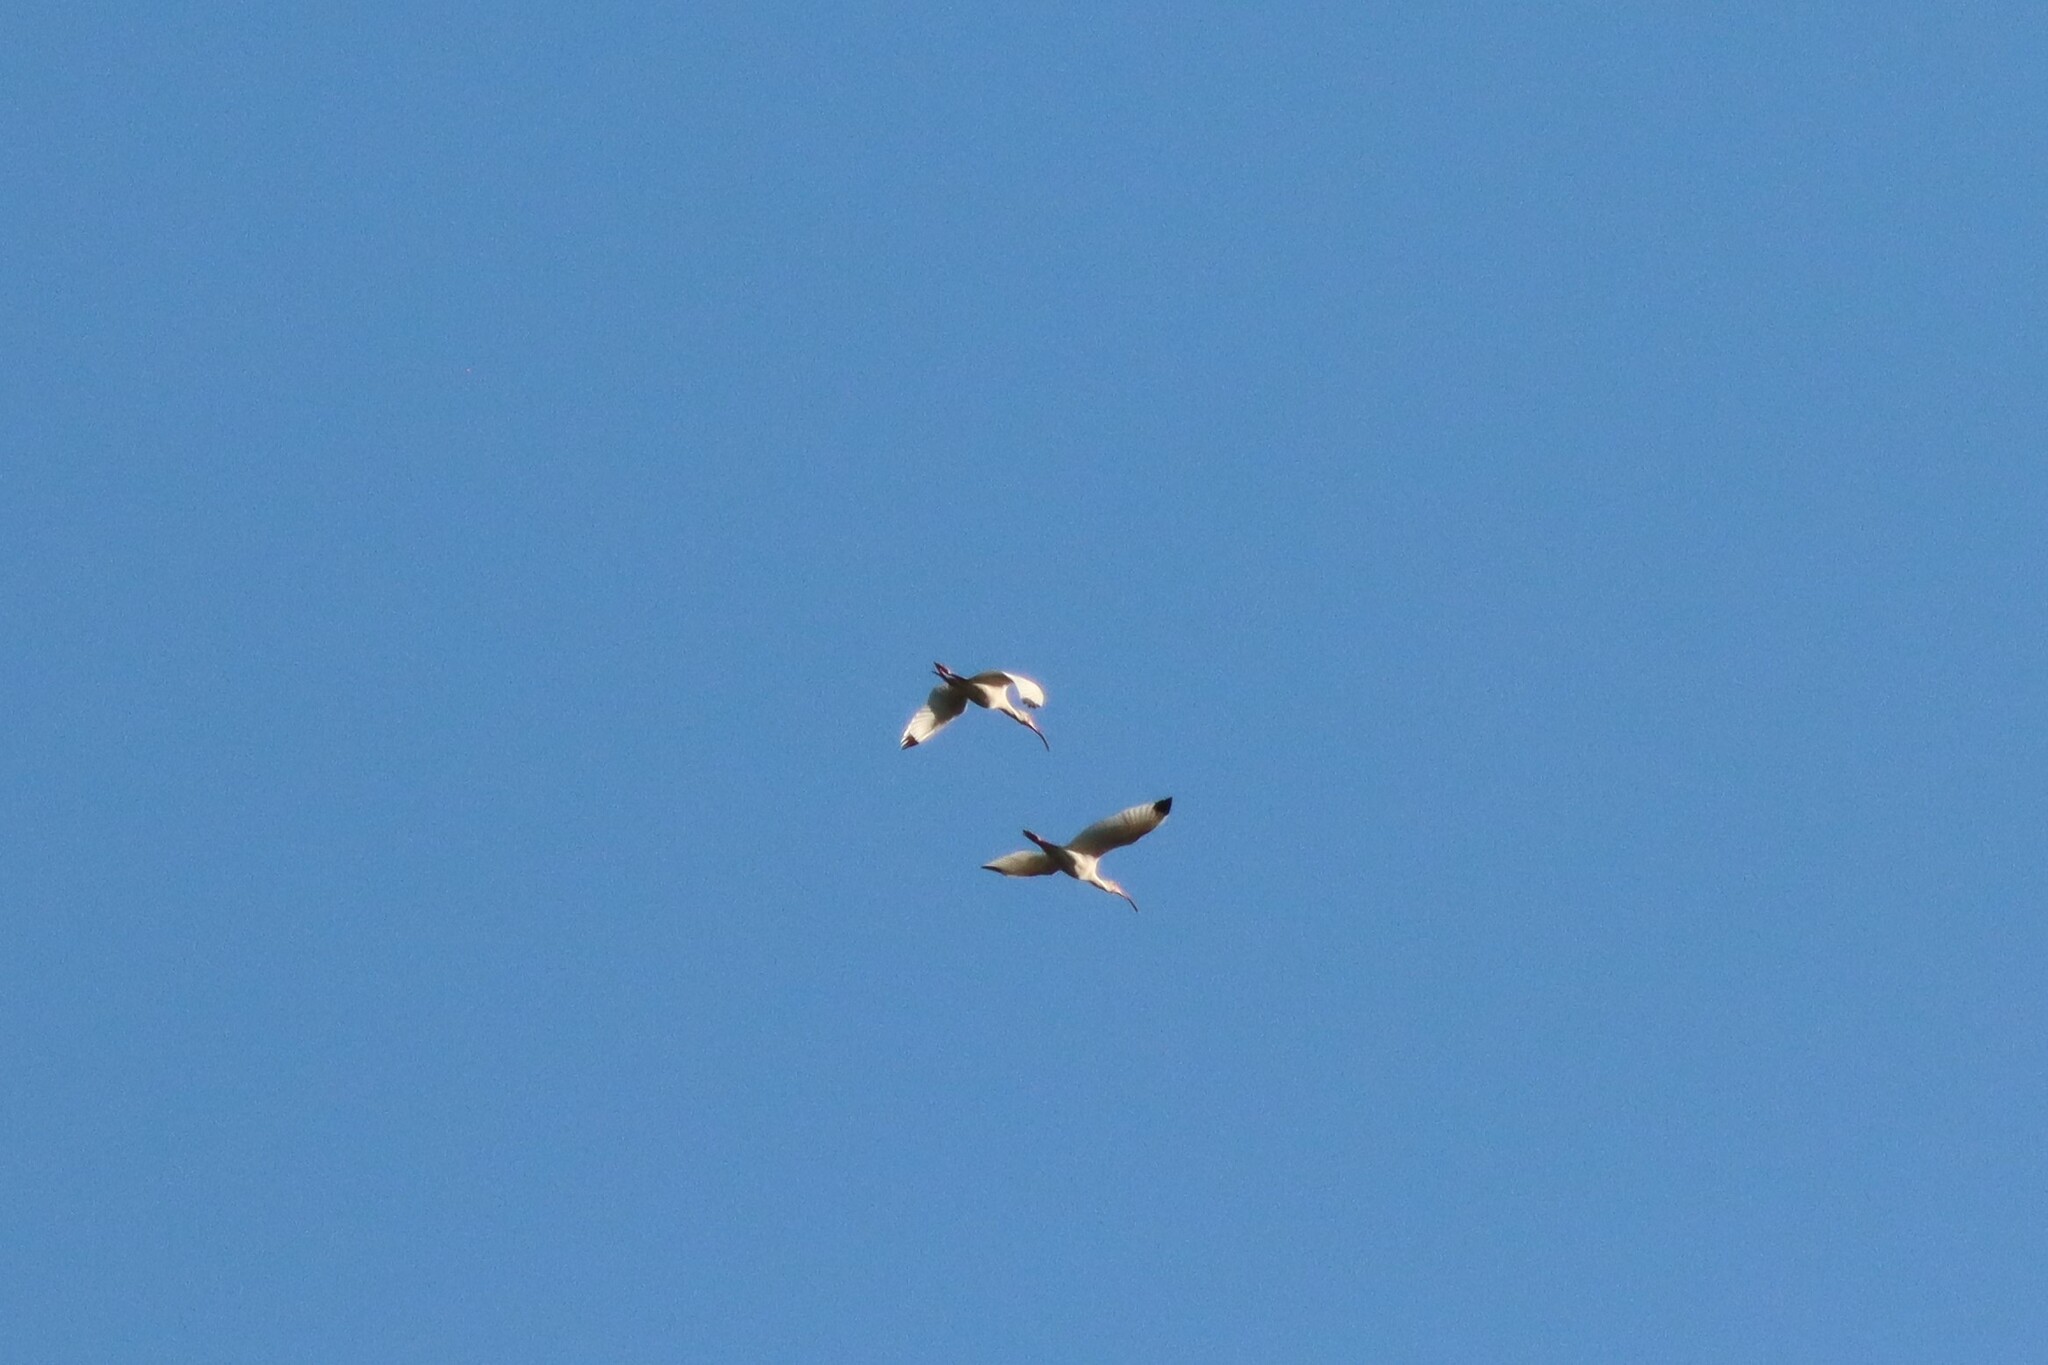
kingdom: Animalia
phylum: Chordata
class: Aves
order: Pelecaniformes
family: Threskiornithidae
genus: Eudocimus
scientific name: Eudocimus albus
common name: White ibis
